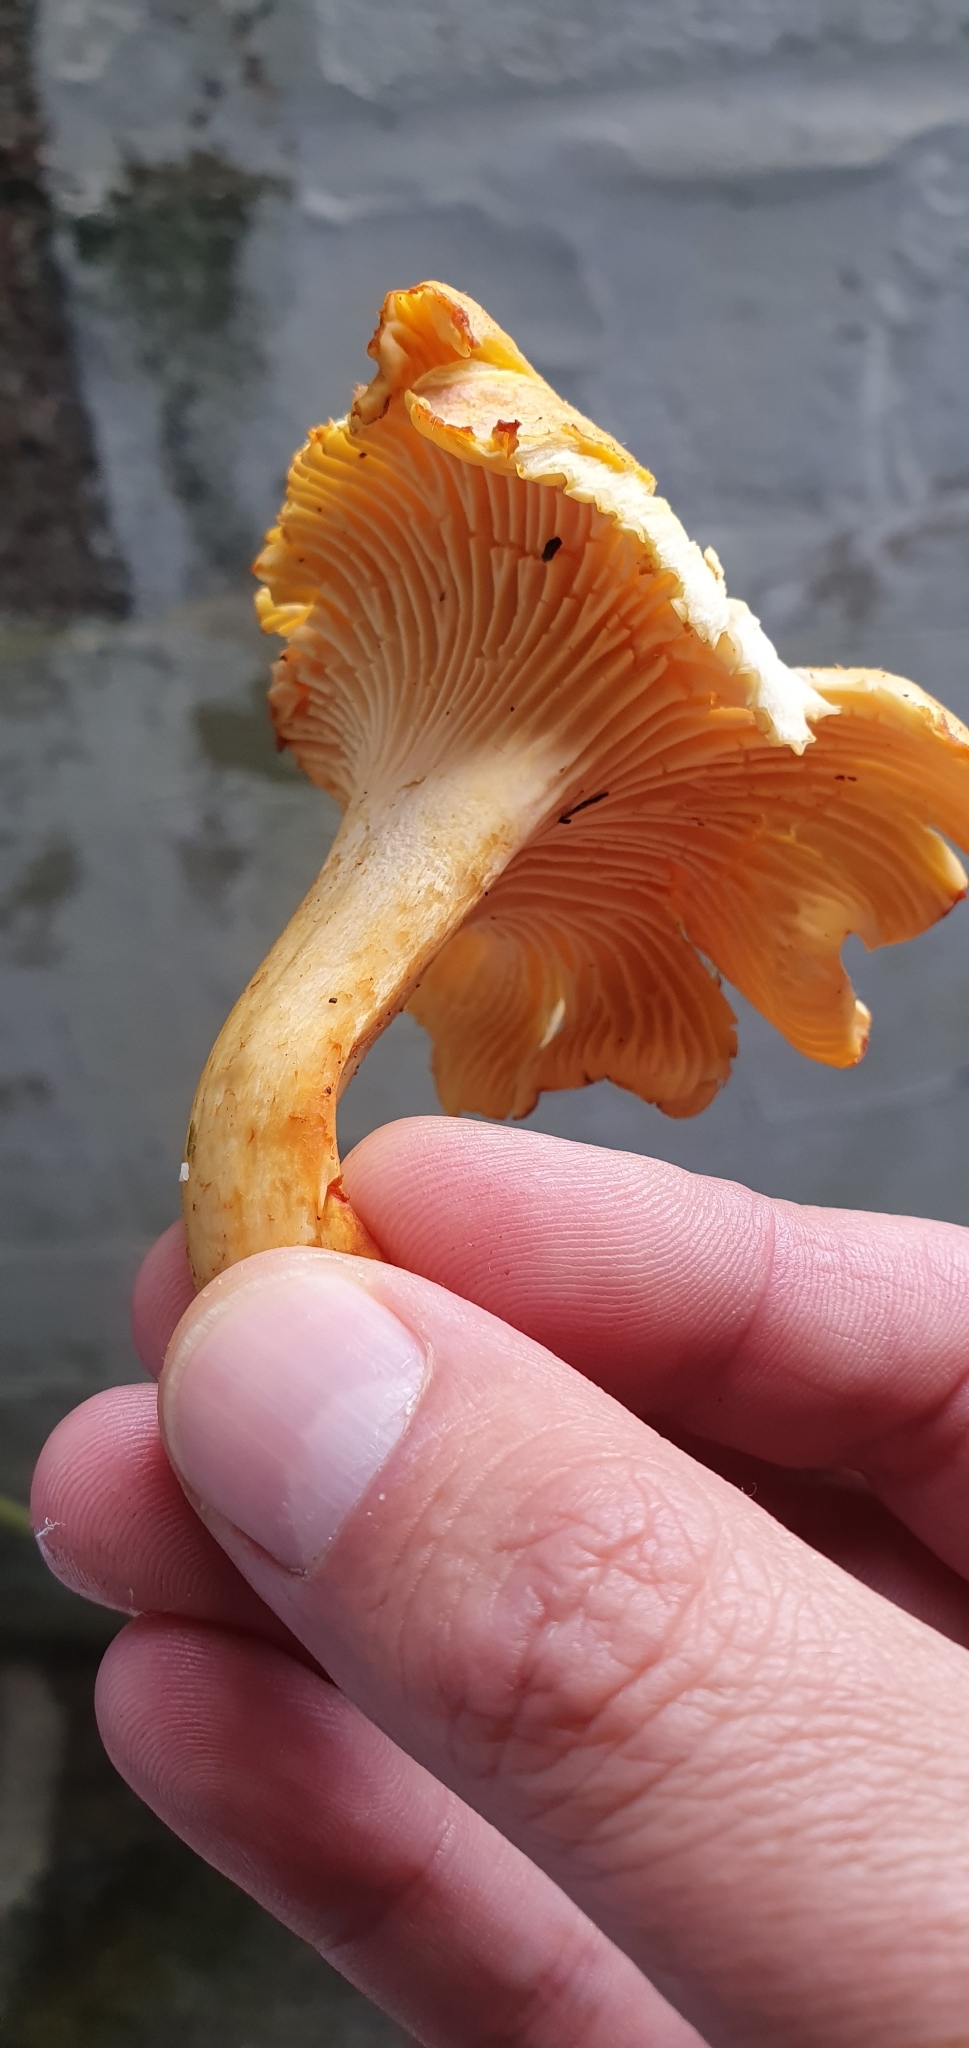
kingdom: Fungi
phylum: Basidiomycota
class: Agaricomycetes
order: Cantharellales
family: Hydnaceae
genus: Cantharellus
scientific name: Cantharellus cibarius
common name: Chanterelle
